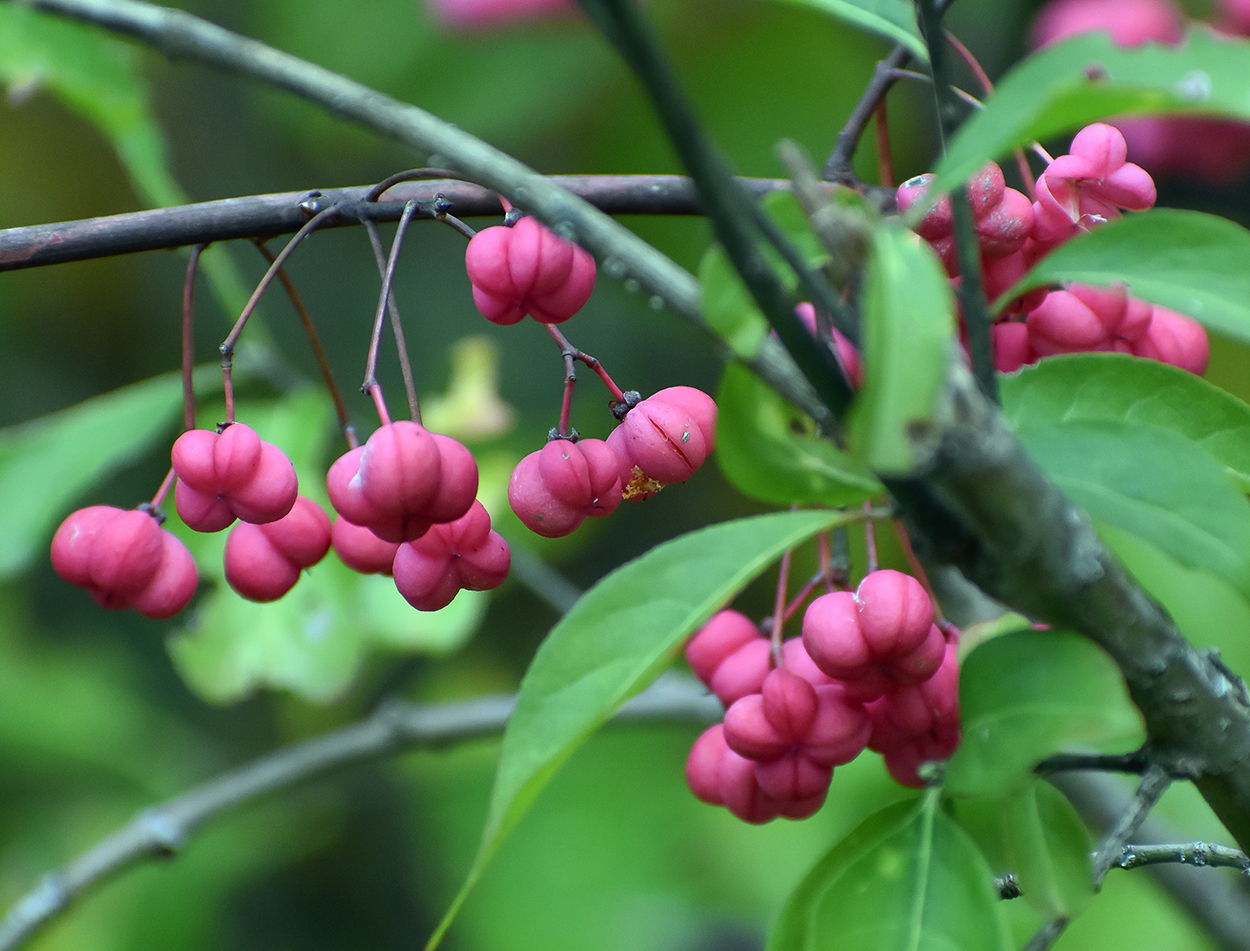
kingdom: Plantae
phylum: Tracheophyta
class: Magnoliopsida
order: Celastrales
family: Celastraceae
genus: Euonymus
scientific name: Euonymus europaeus
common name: Spindle
